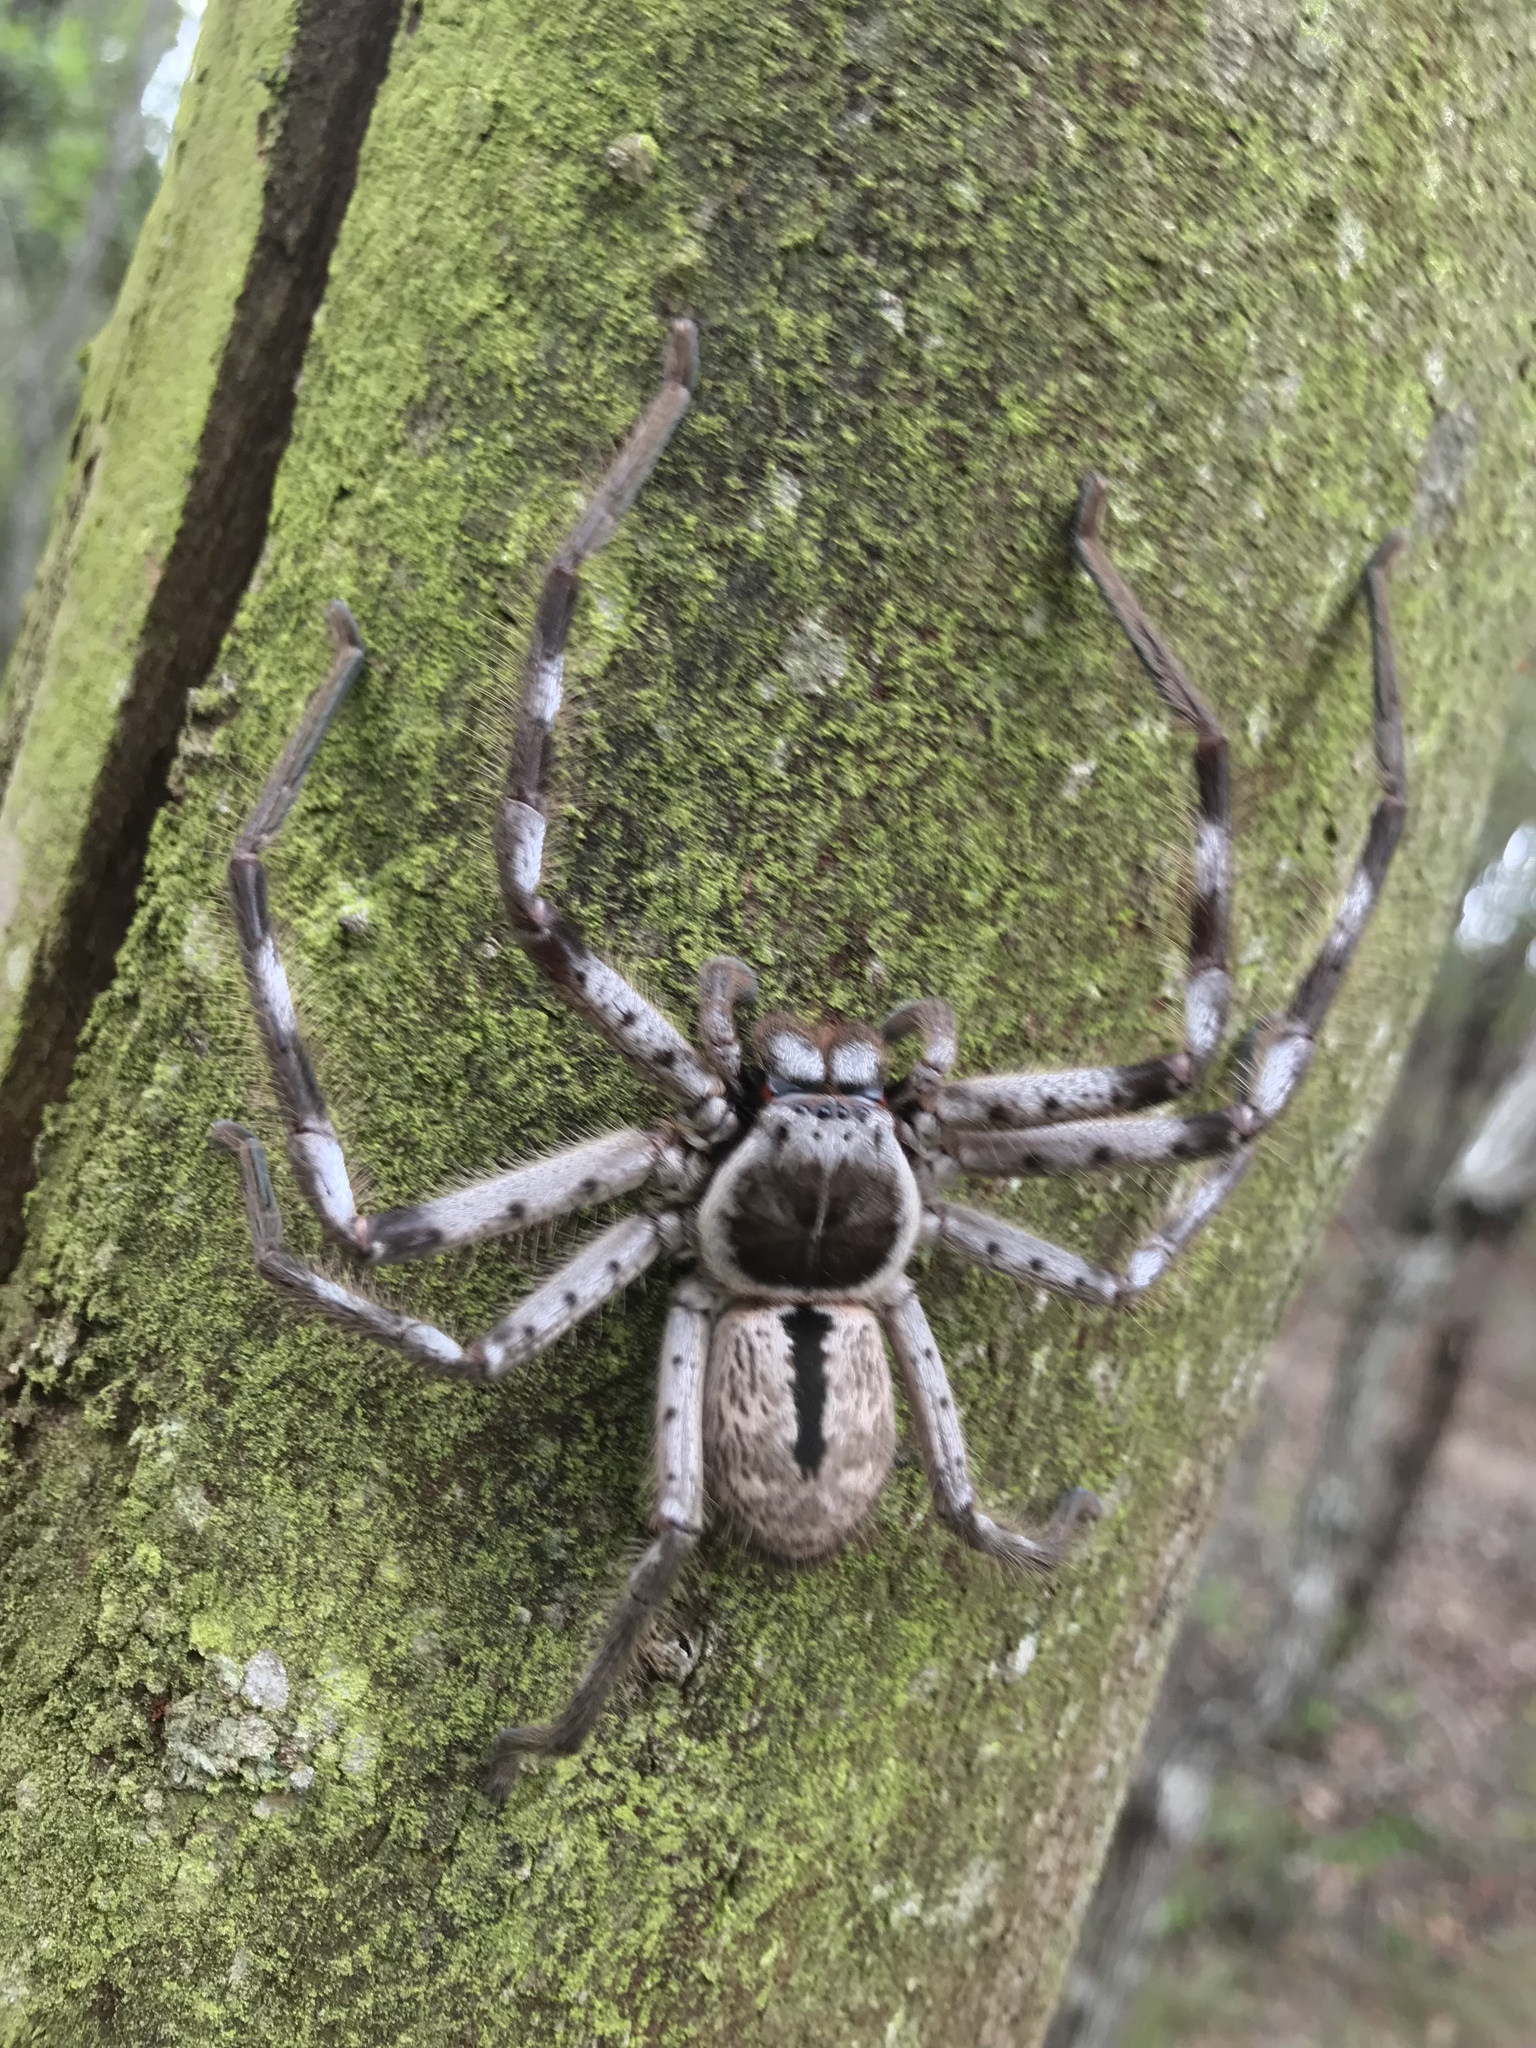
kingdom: Animalia
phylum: Arthropoda
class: Arachnida
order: Araneae
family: Sparassidae
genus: Holconia
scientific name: Holconia immanis
